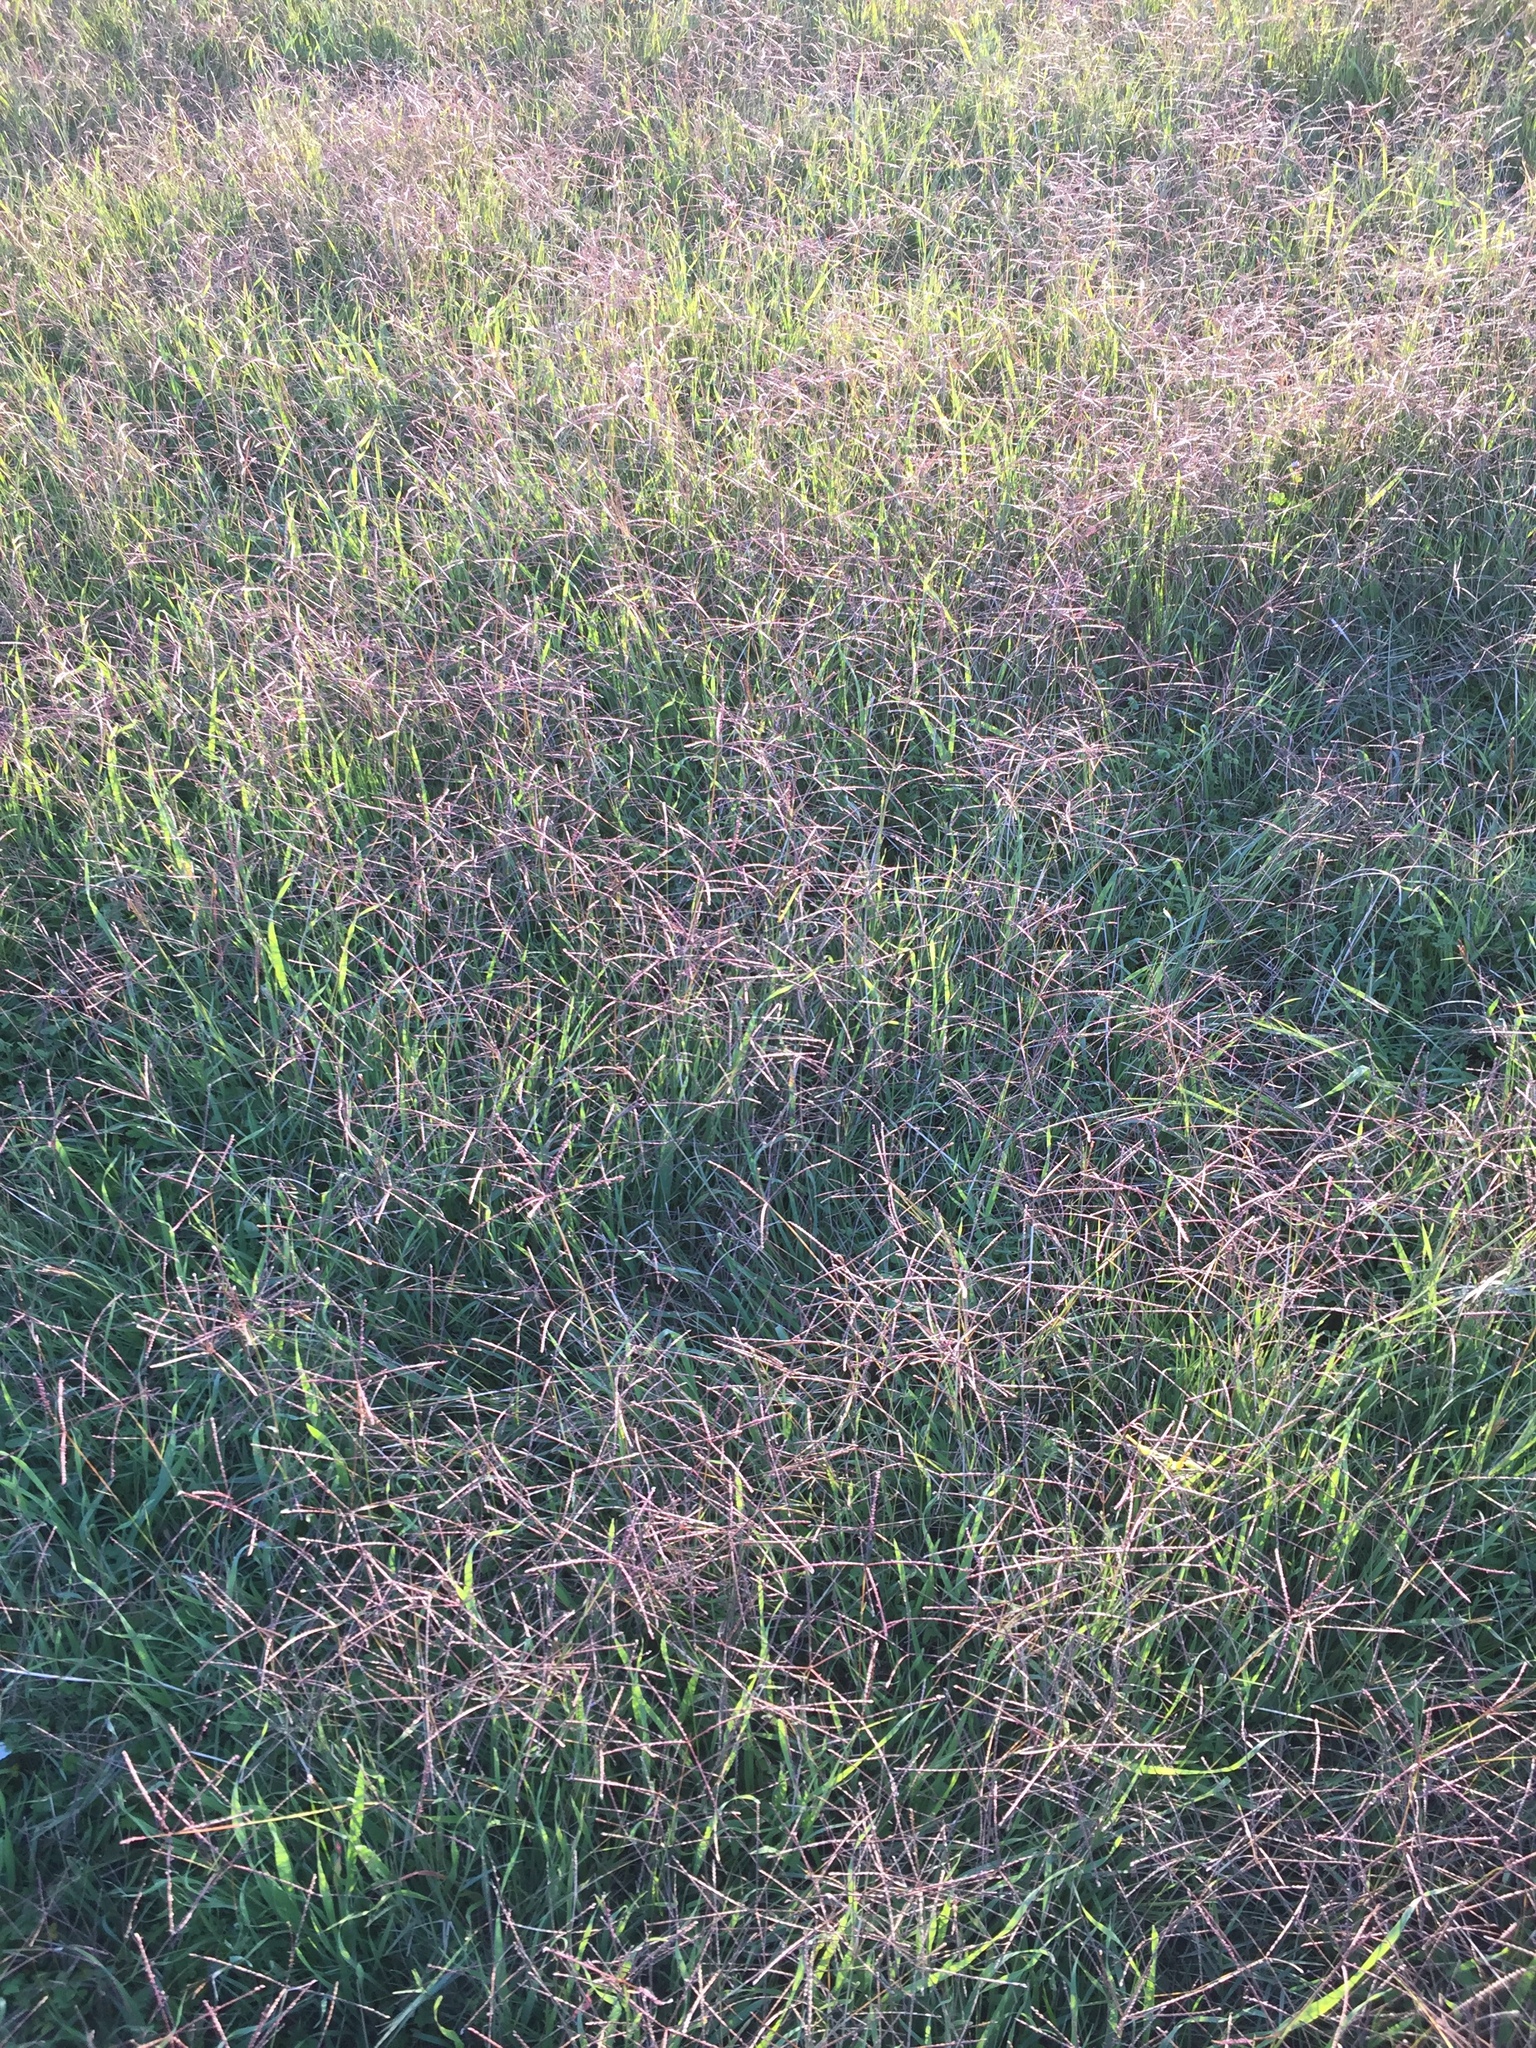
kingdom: Plantae
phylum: Tracheophyta
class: Liliopsida
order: Poales
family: Poaceae
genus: Cynodon
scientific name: Cynodon dactylon
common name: Bermuda grass
